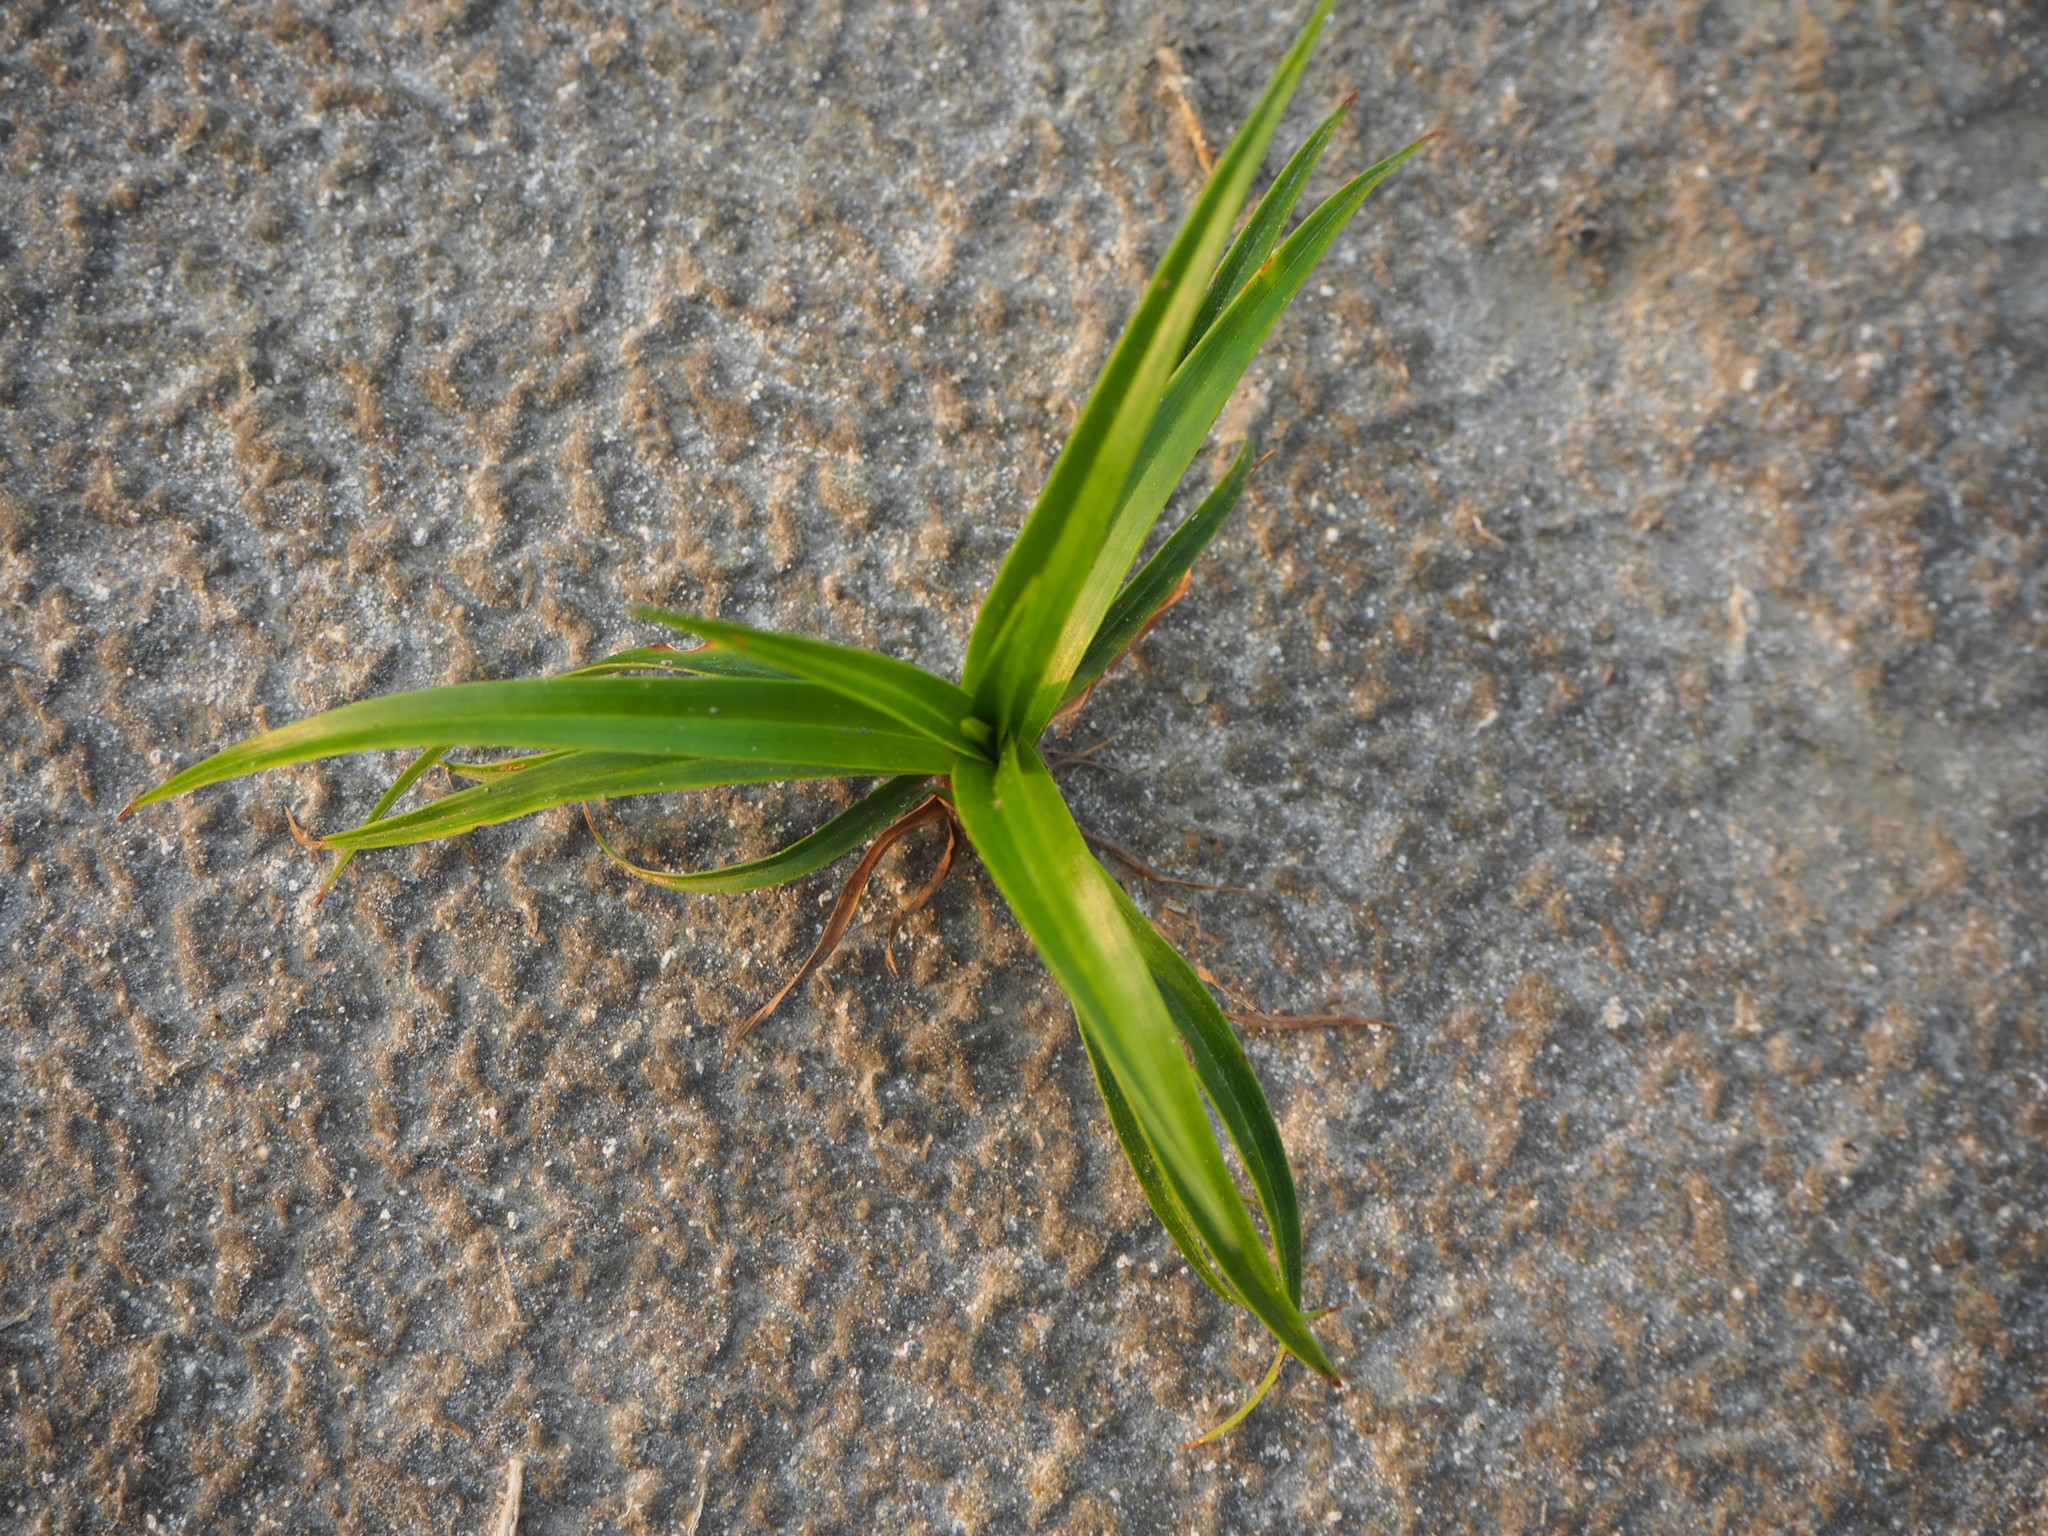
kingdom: Plantae
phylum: Tracheophyta
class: Liliopsida
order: Poales
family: Cyperaceae
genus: Scirpus
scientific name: Scirpus ternatanus
